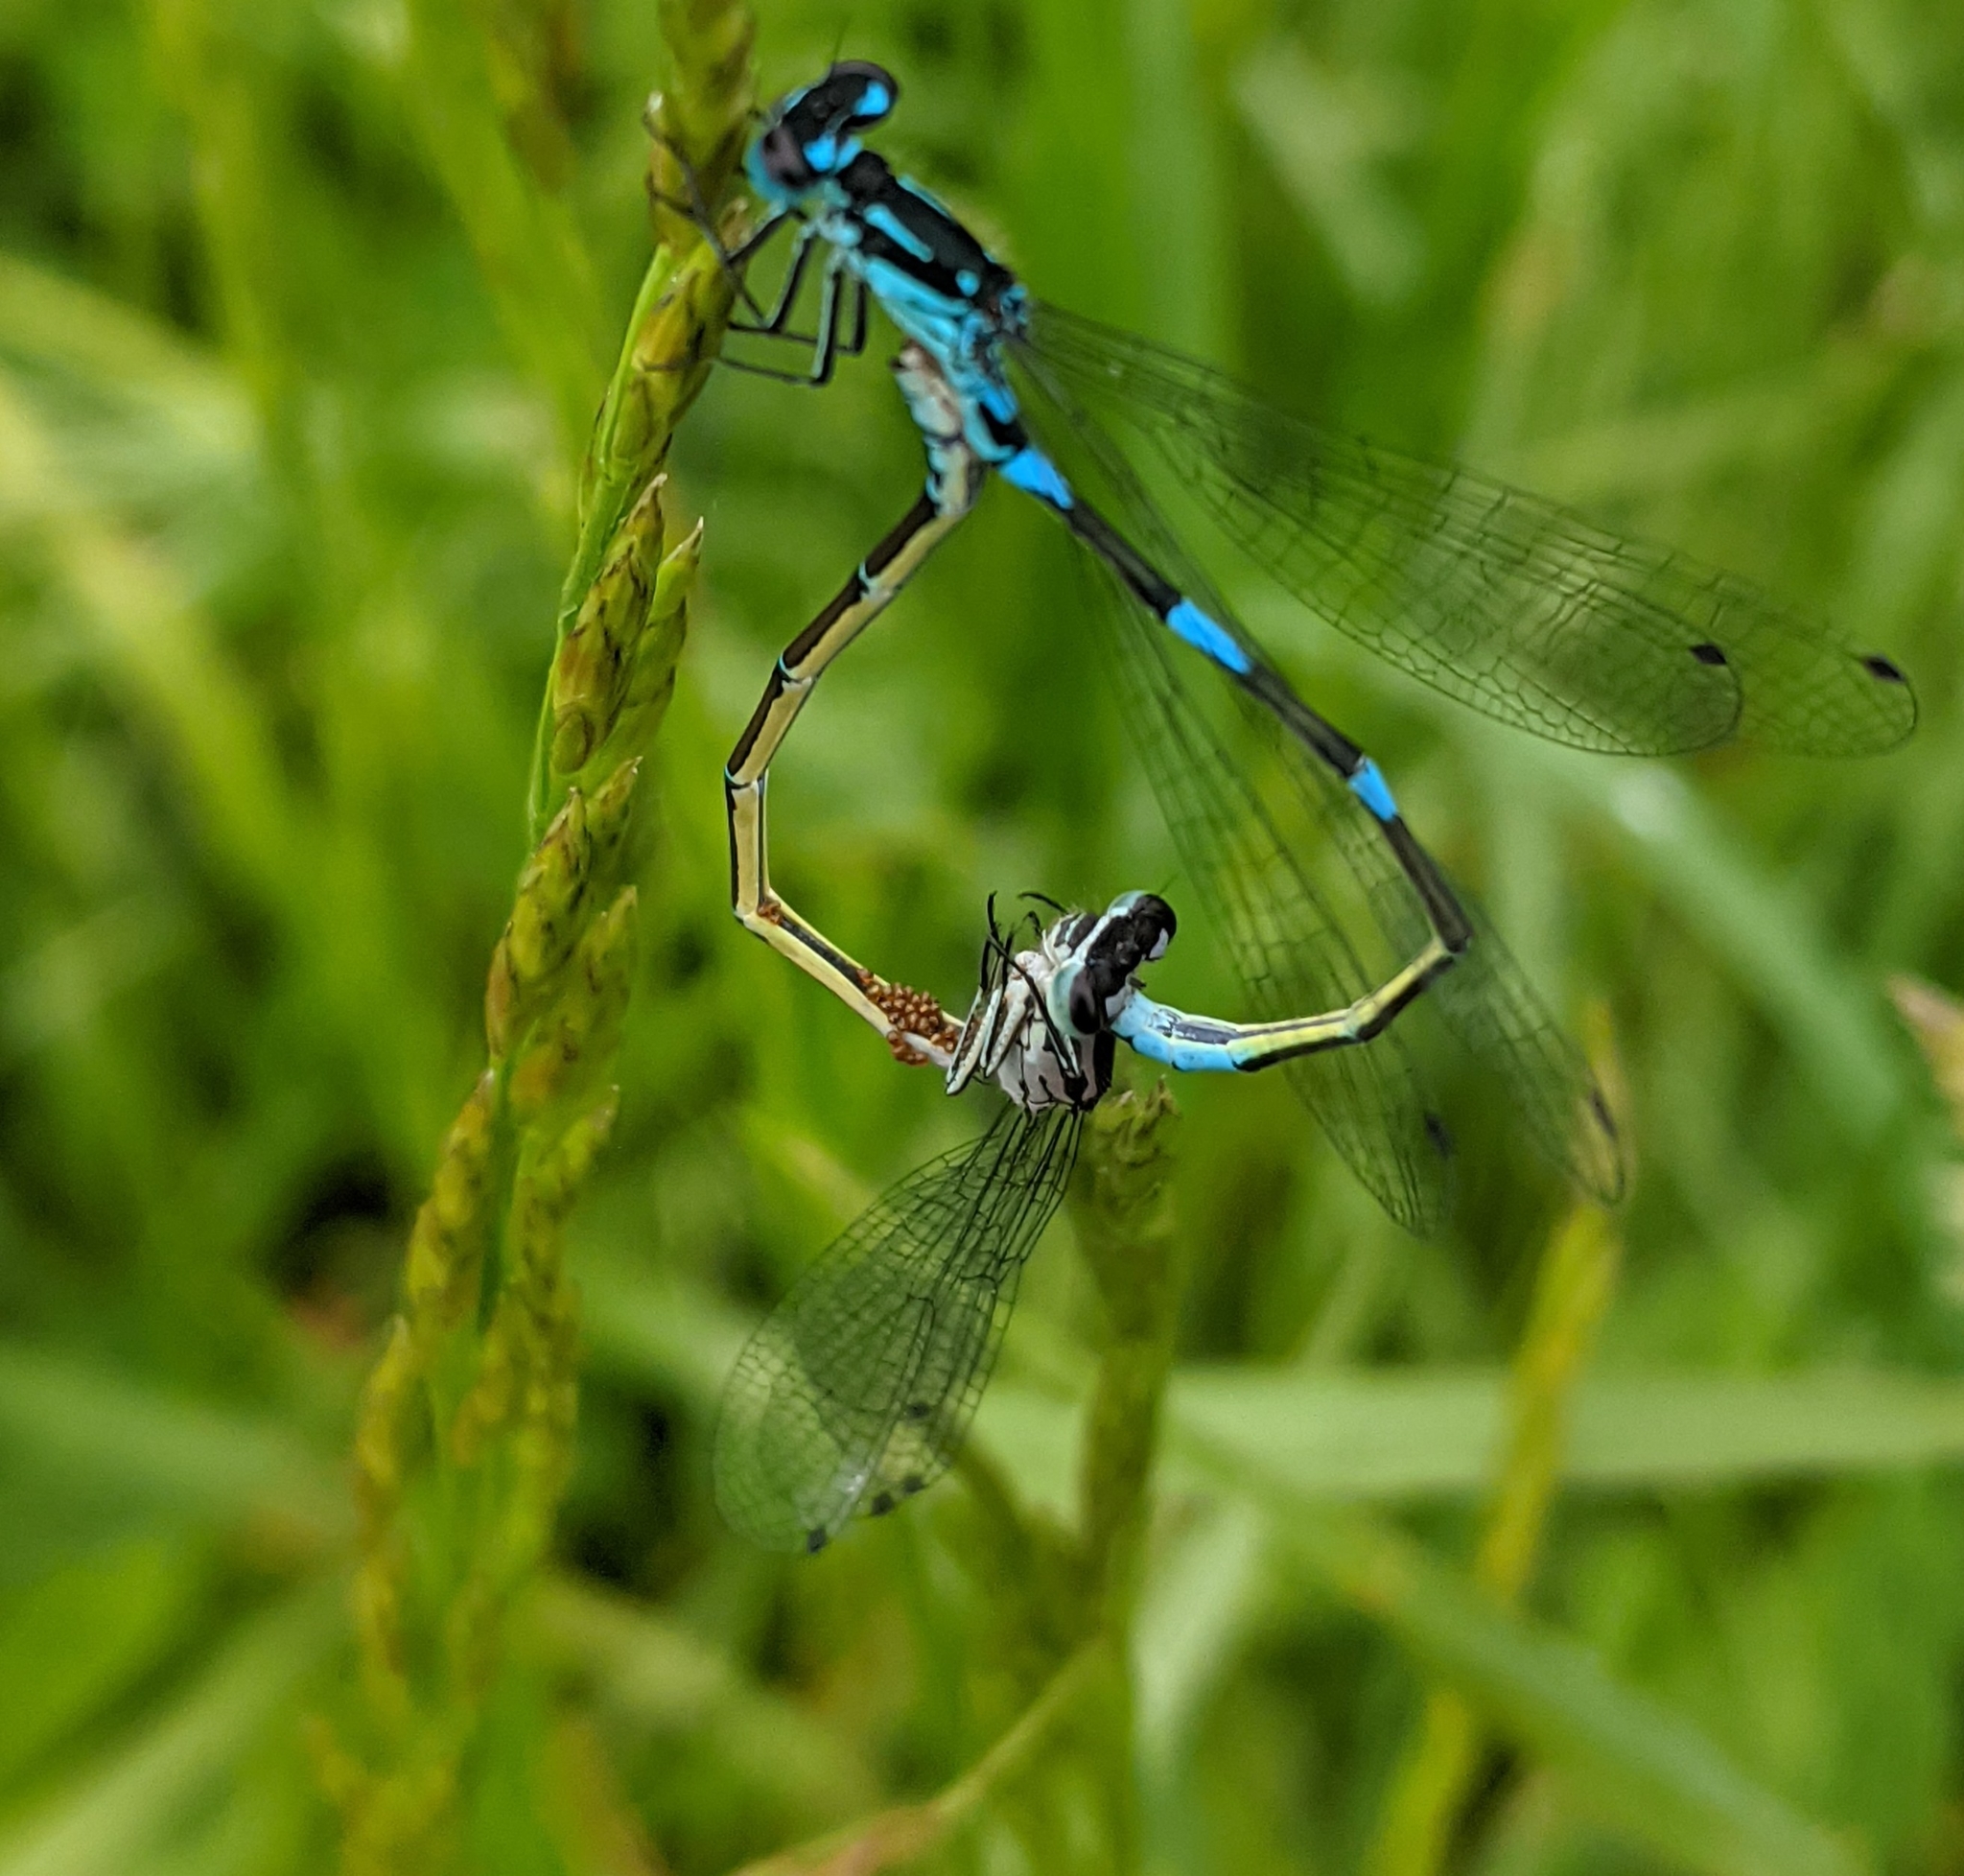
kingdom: Animalia
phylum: Arthropoda
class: Insecta
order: Odonata
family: Coenagrionidae
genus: Coenagrion
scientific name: Coenagrion pulchellum
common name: Variable bluet
